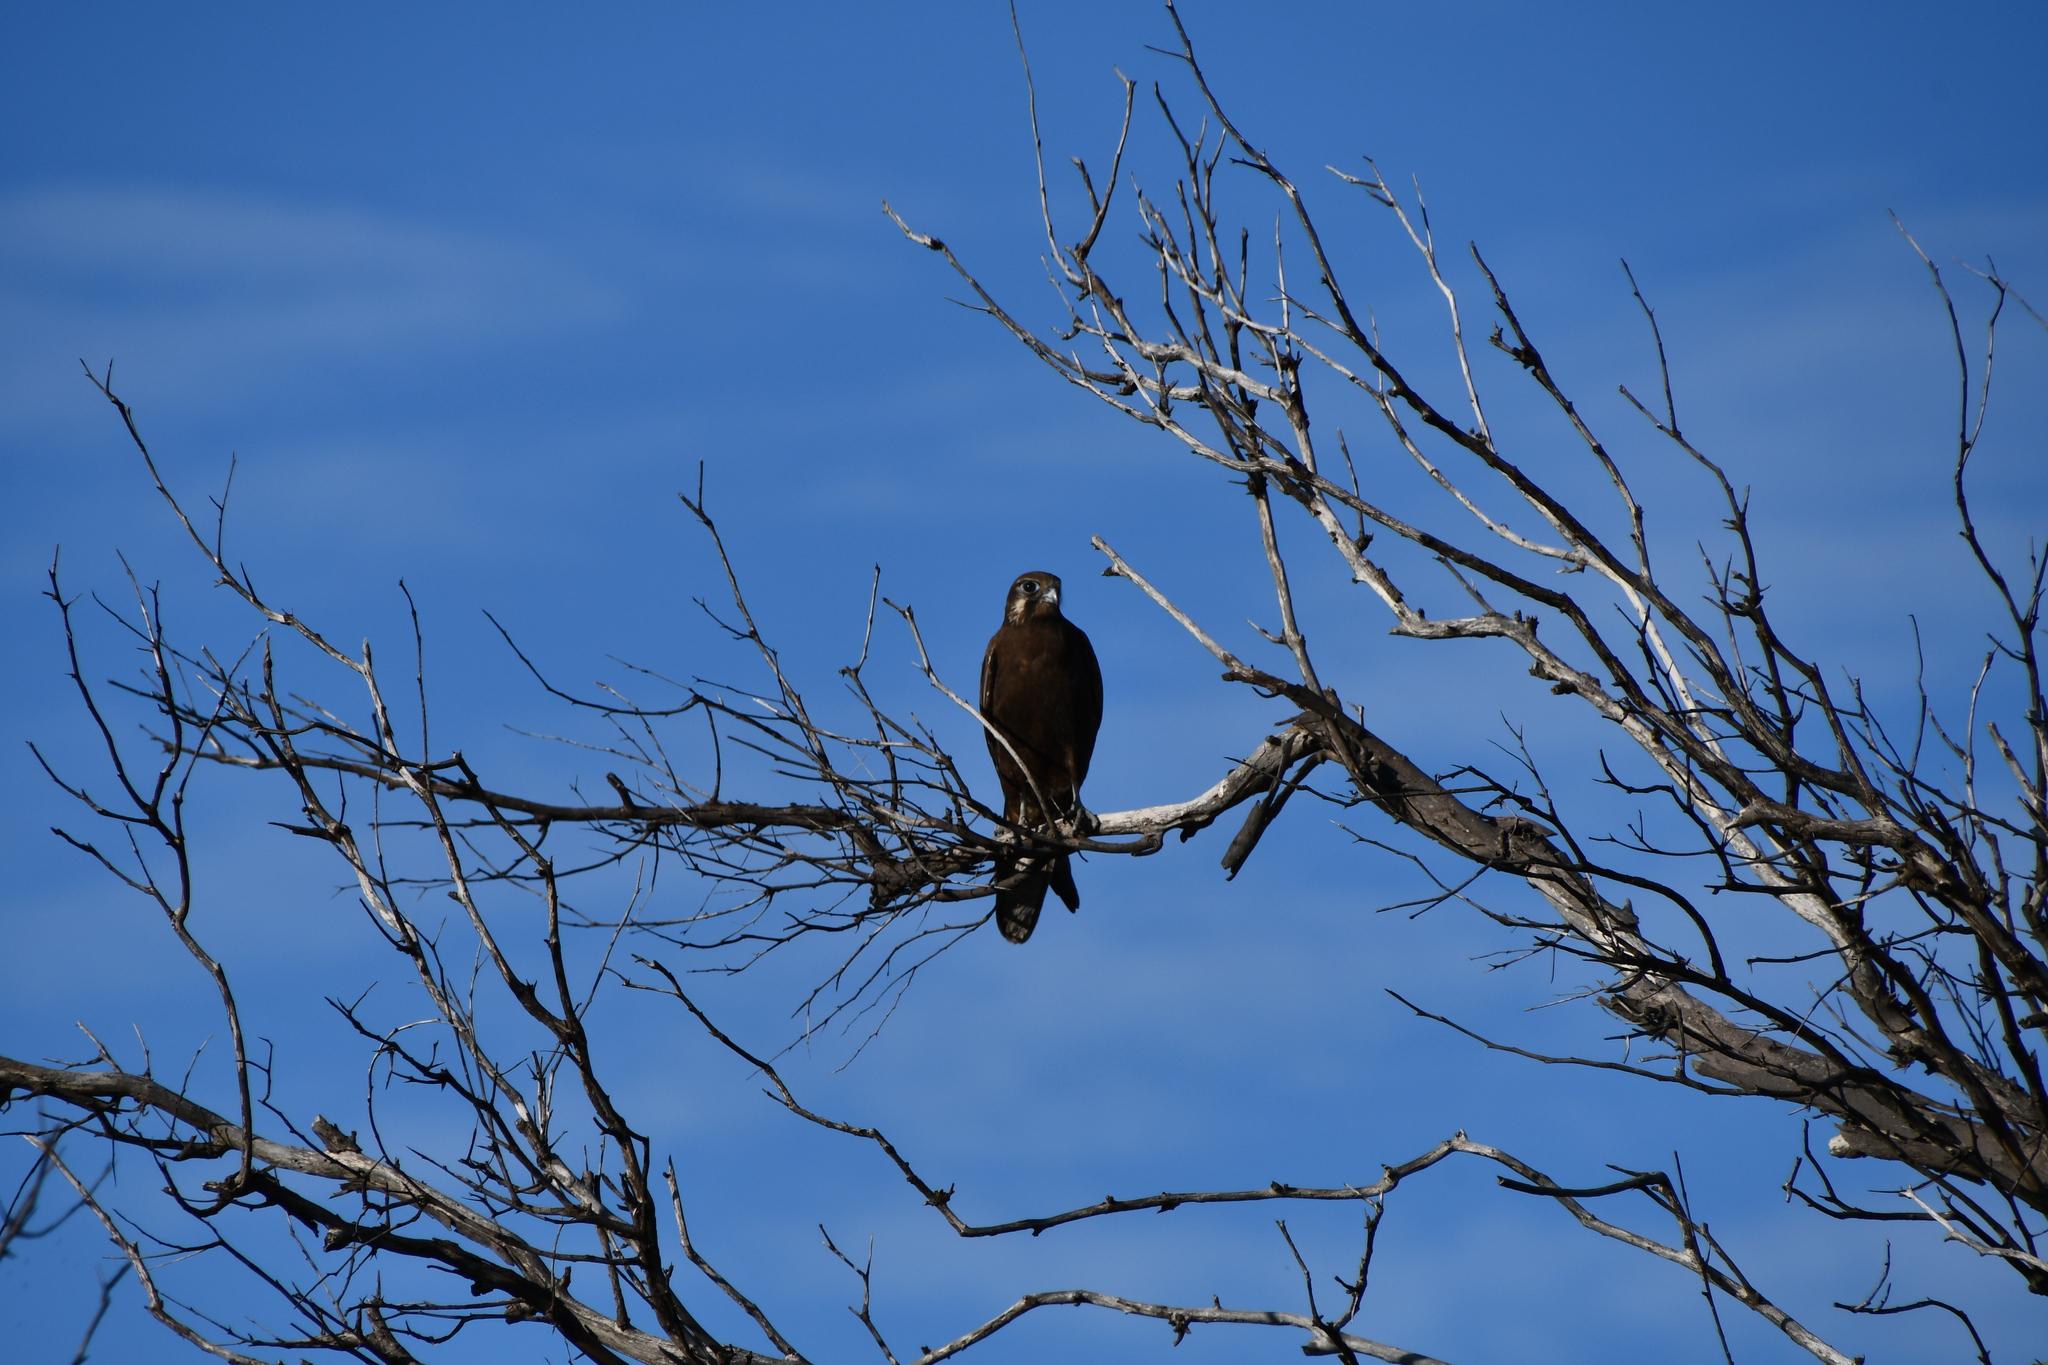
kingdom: Animalia
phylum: Chordata
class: Aves
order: Falconiformes
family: Falconidae
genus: Falco
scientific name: Falco berigora
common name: Brown falcon
